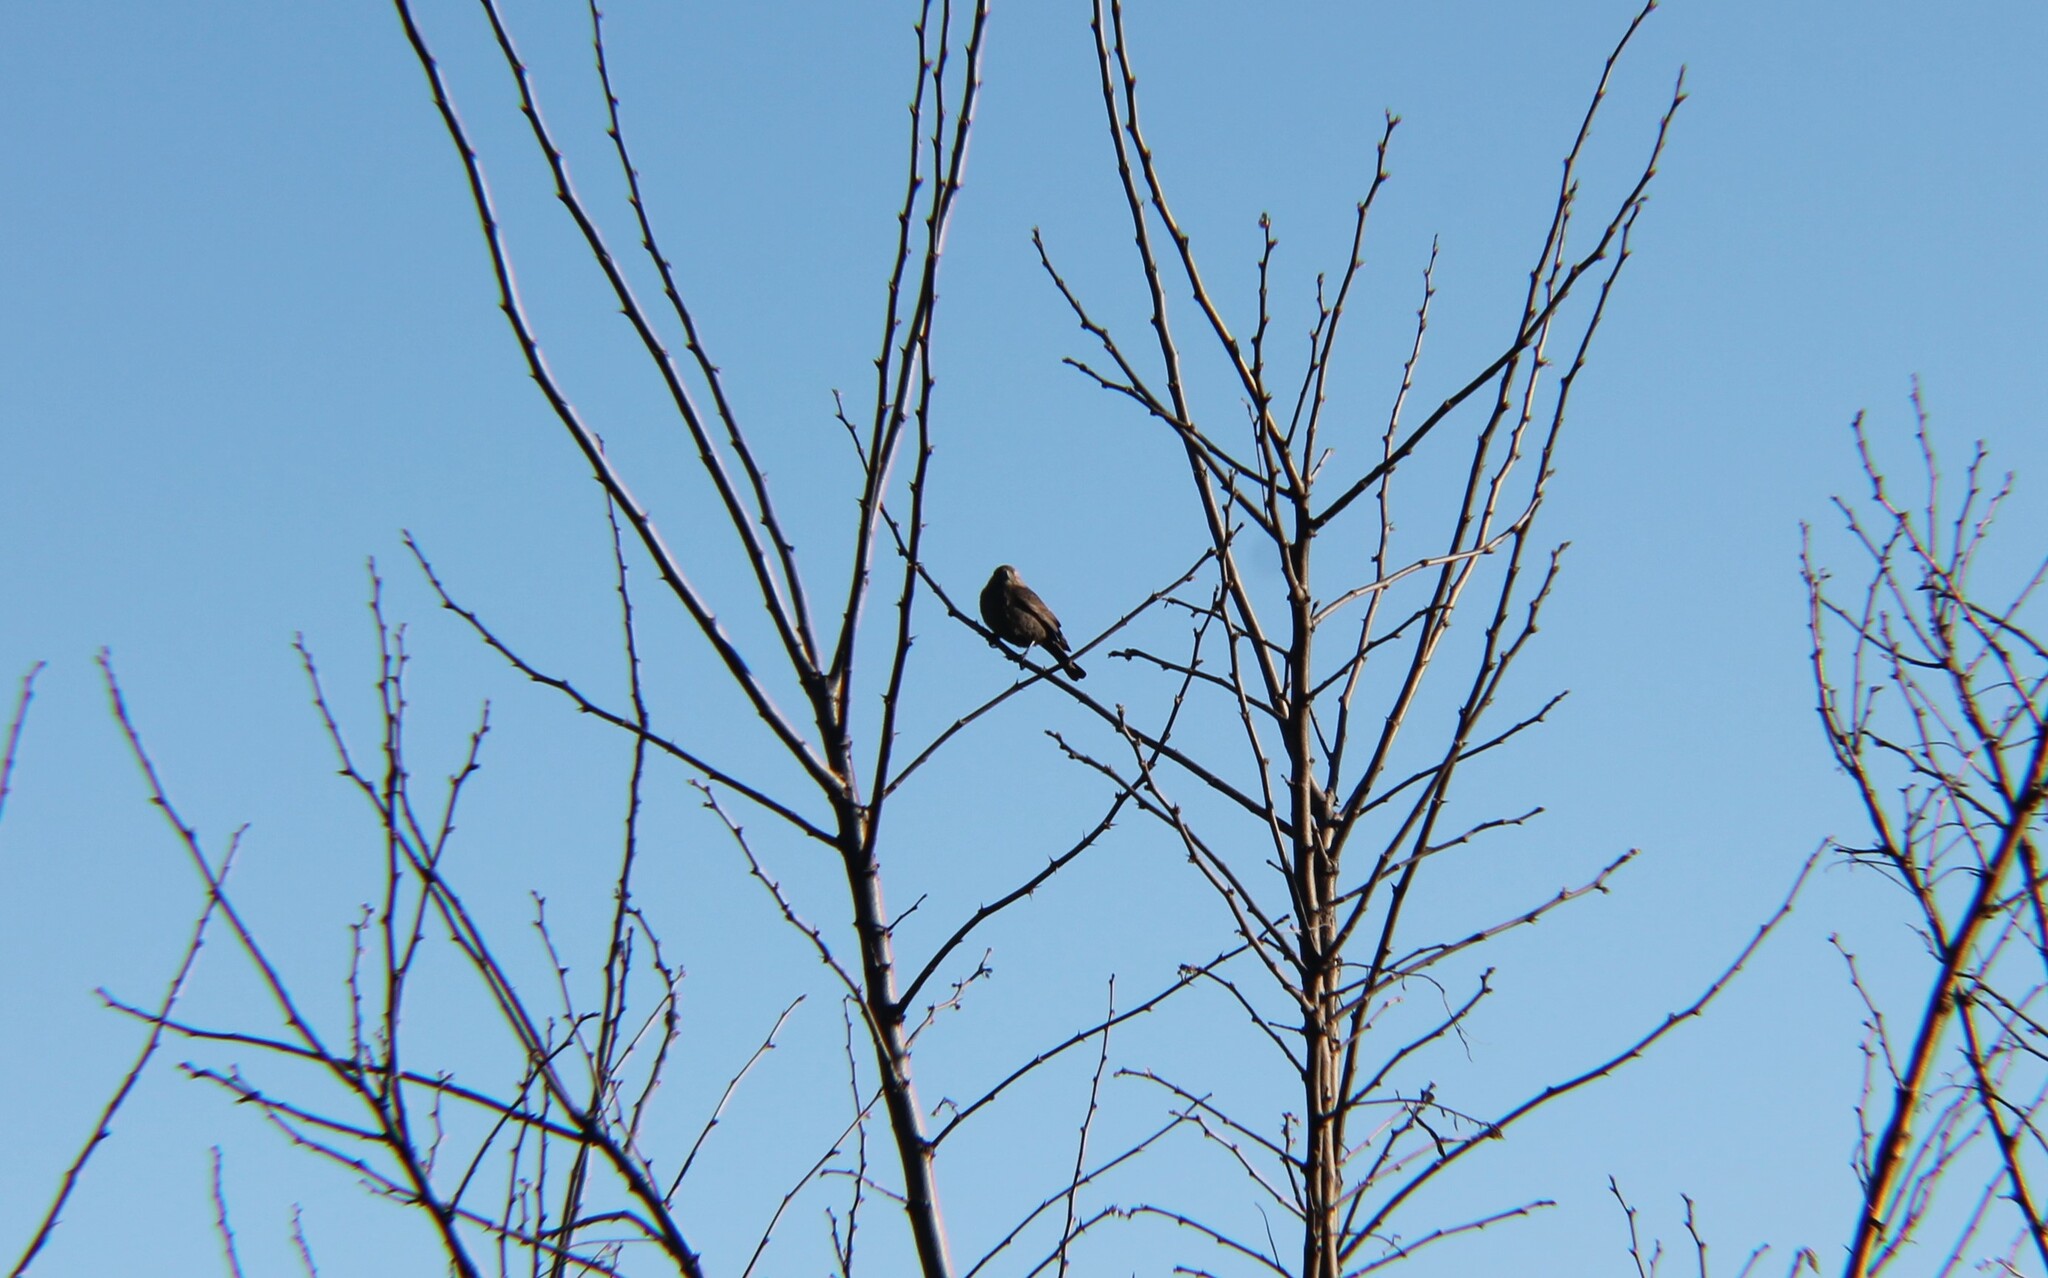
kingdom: Animalia
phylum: Chordata
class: Aves
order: Passeriformes
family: Icteridae
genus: Molothrus
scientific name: Molothrus ater
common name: Brown-headed cowbird
